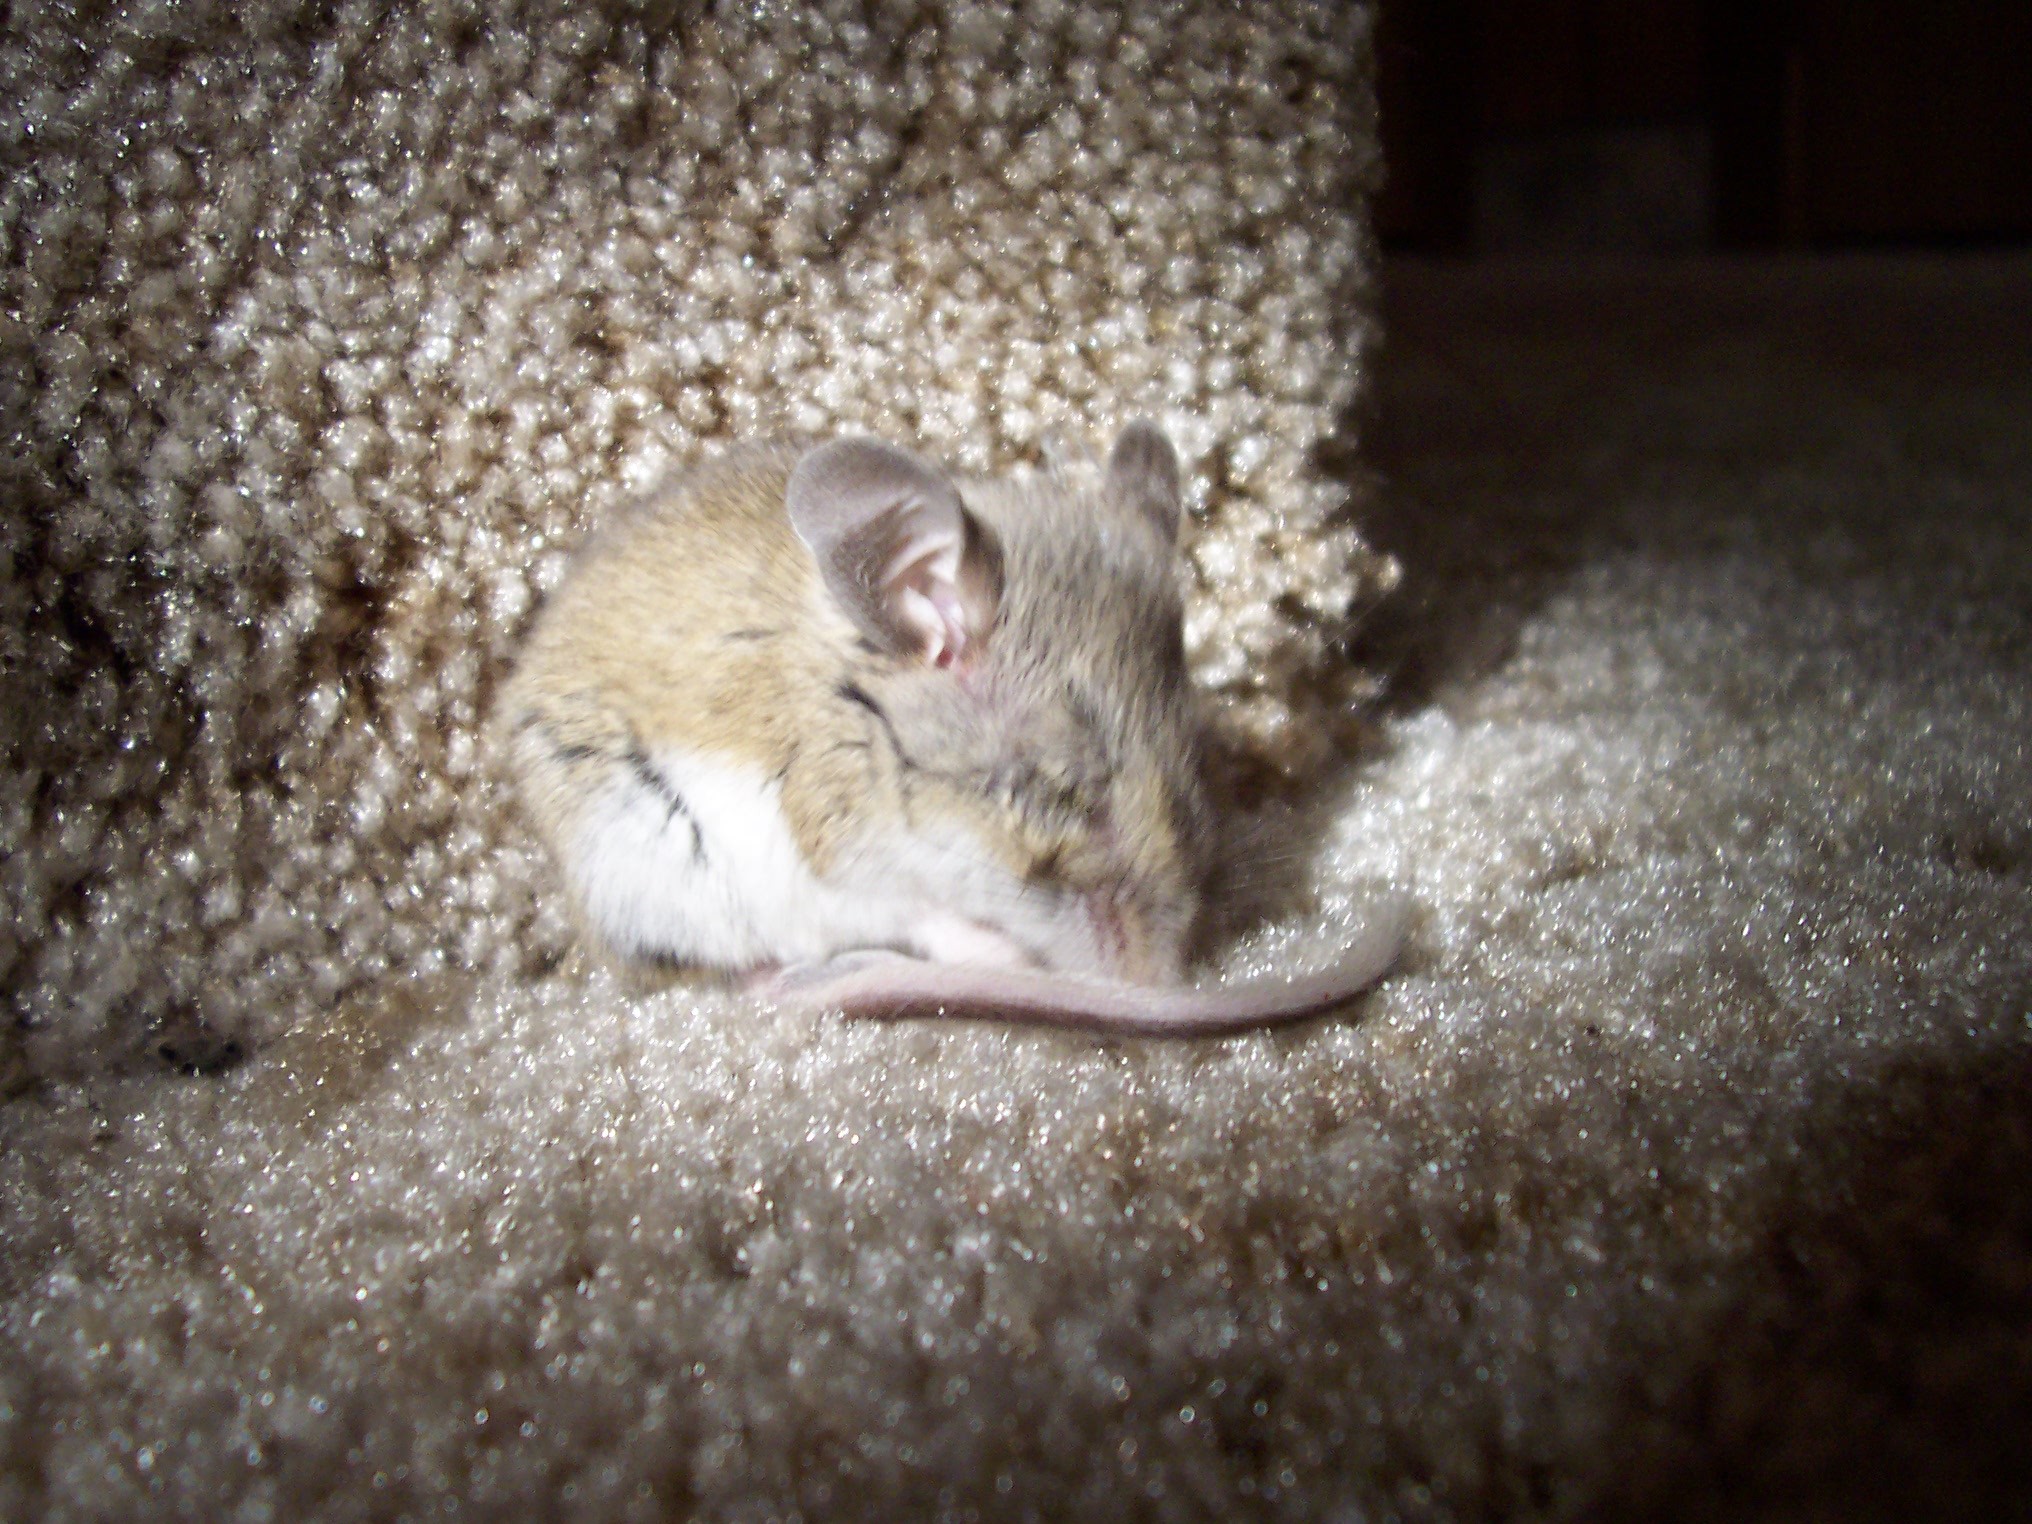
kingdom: Animalia
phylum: Chordata
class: Mammalia
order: Rodentia
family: Cricetidae
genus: Peromyscus
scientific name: Peromyscus maniculatus
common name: Deer mouse
